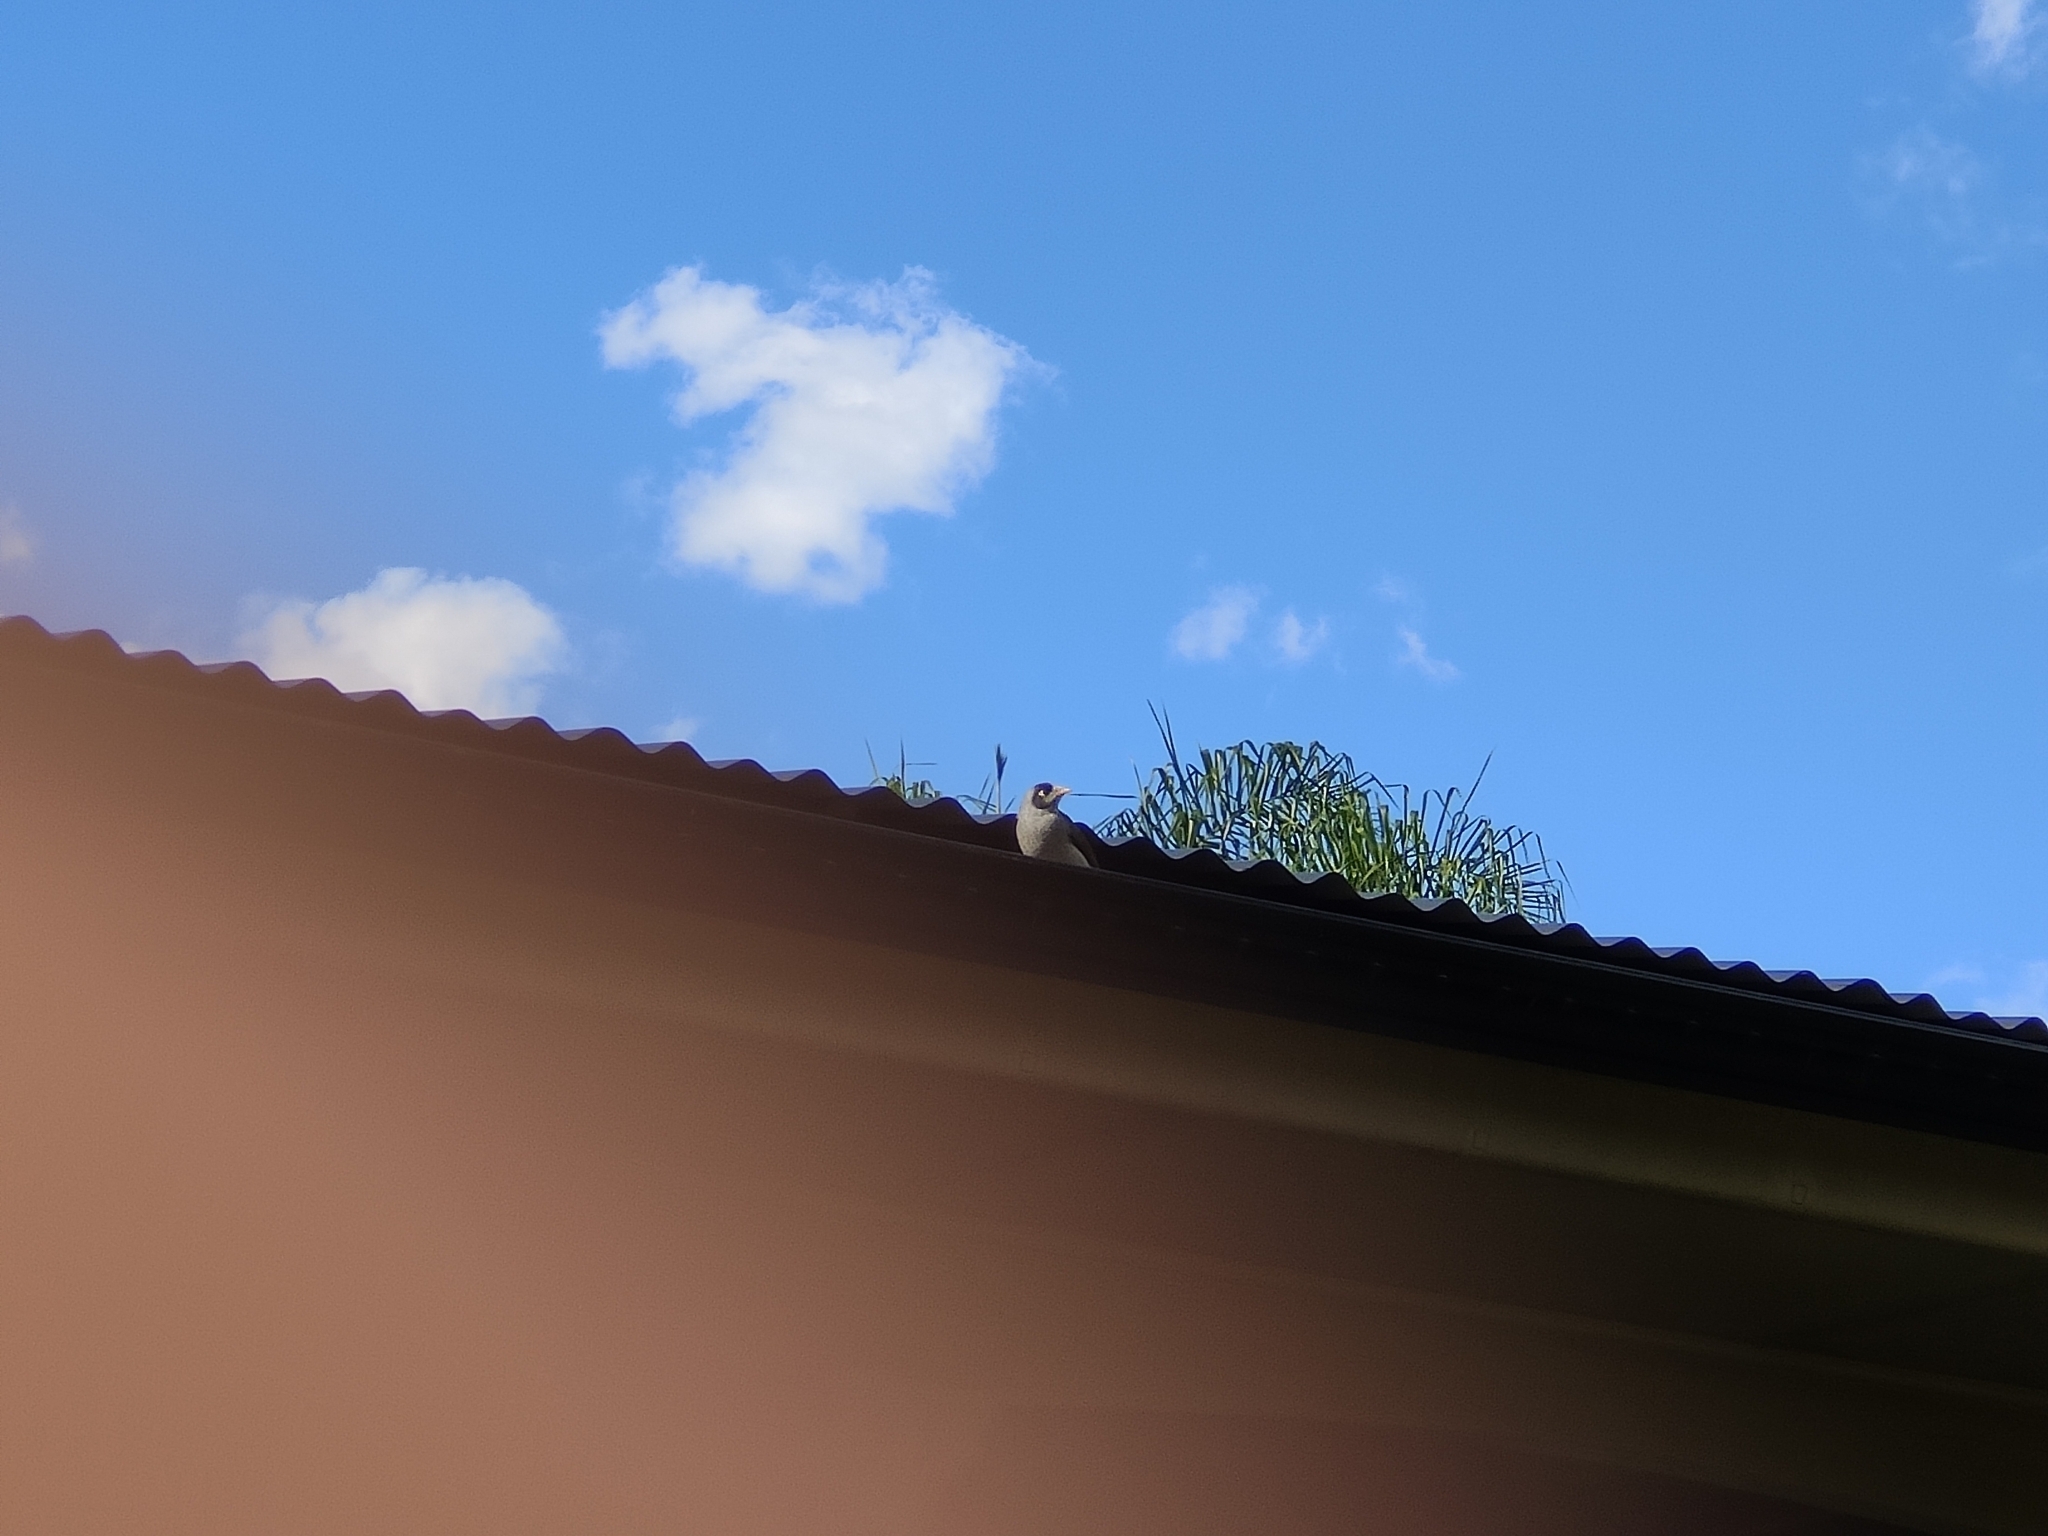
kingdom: Animalia
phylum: Chordata
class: Aves
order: Passeriformes
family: Meliphagidae
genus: Manorina
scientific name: Manorina melanocephala
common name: Noisy miner
